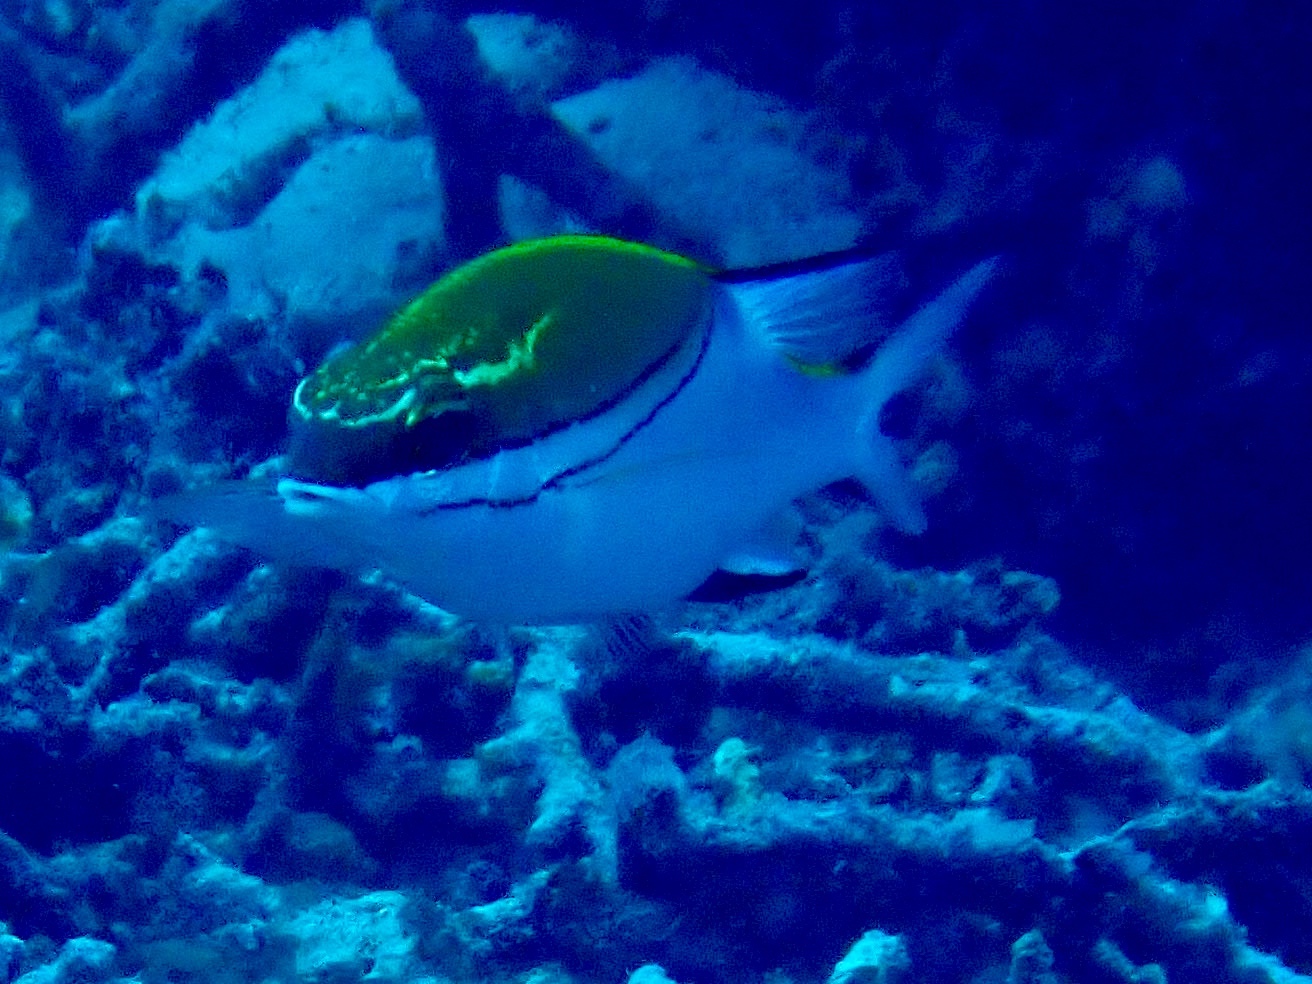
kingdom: Animalia
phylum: Chordata
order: Perciformes
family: Nemipteridae
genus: Scolopsis
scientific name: Scolopsis bilineata
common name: Two-lined monocle bream
